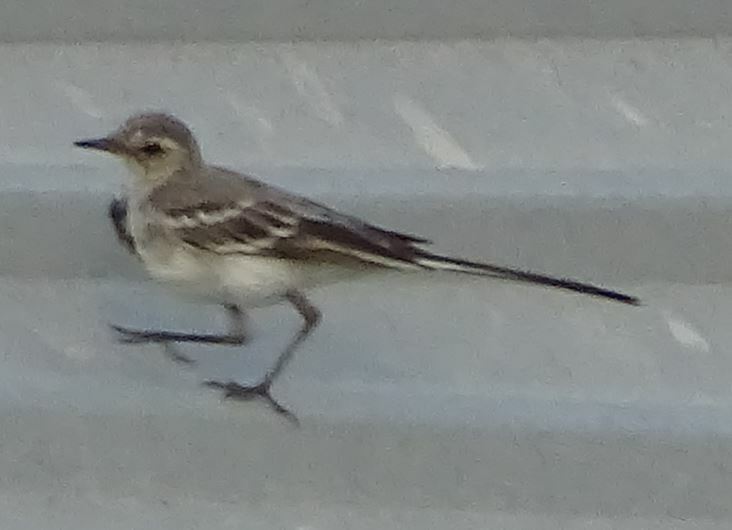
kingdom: Animalia
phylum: Chordata
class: Aves
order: Passeriformes
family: Motacillidae
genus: Motacilla
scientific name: Motacilla alba
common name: White wagtail
